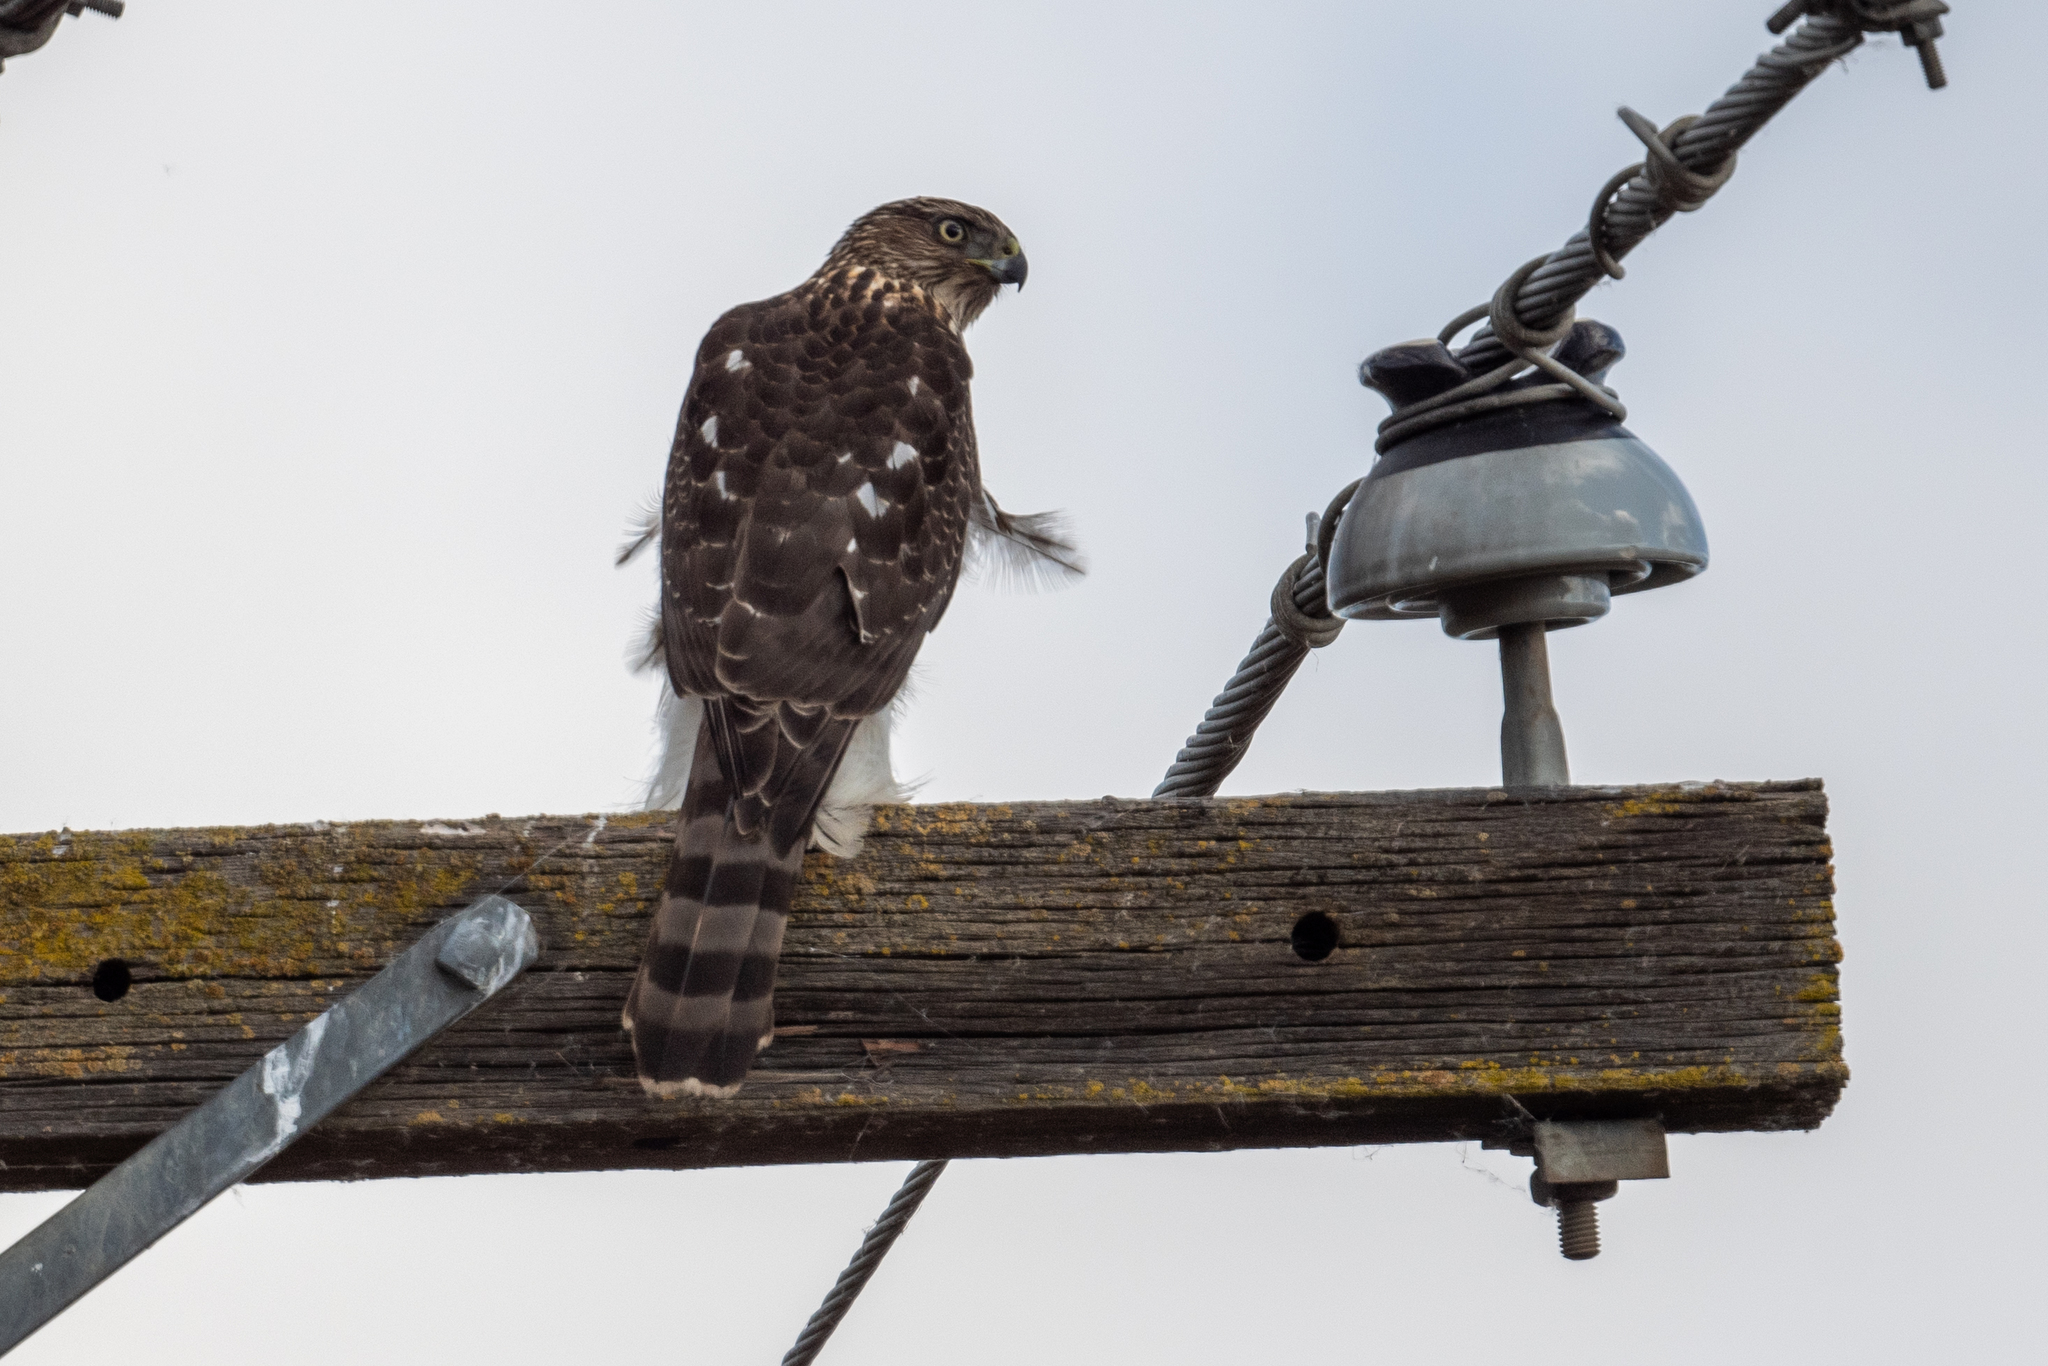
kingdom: Animalia
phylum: Chordata
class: Aves
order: Accipitriformes
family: Accipitridae
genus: Accipiter
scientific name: Accipiter cooperii
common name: Cooper's hawk
